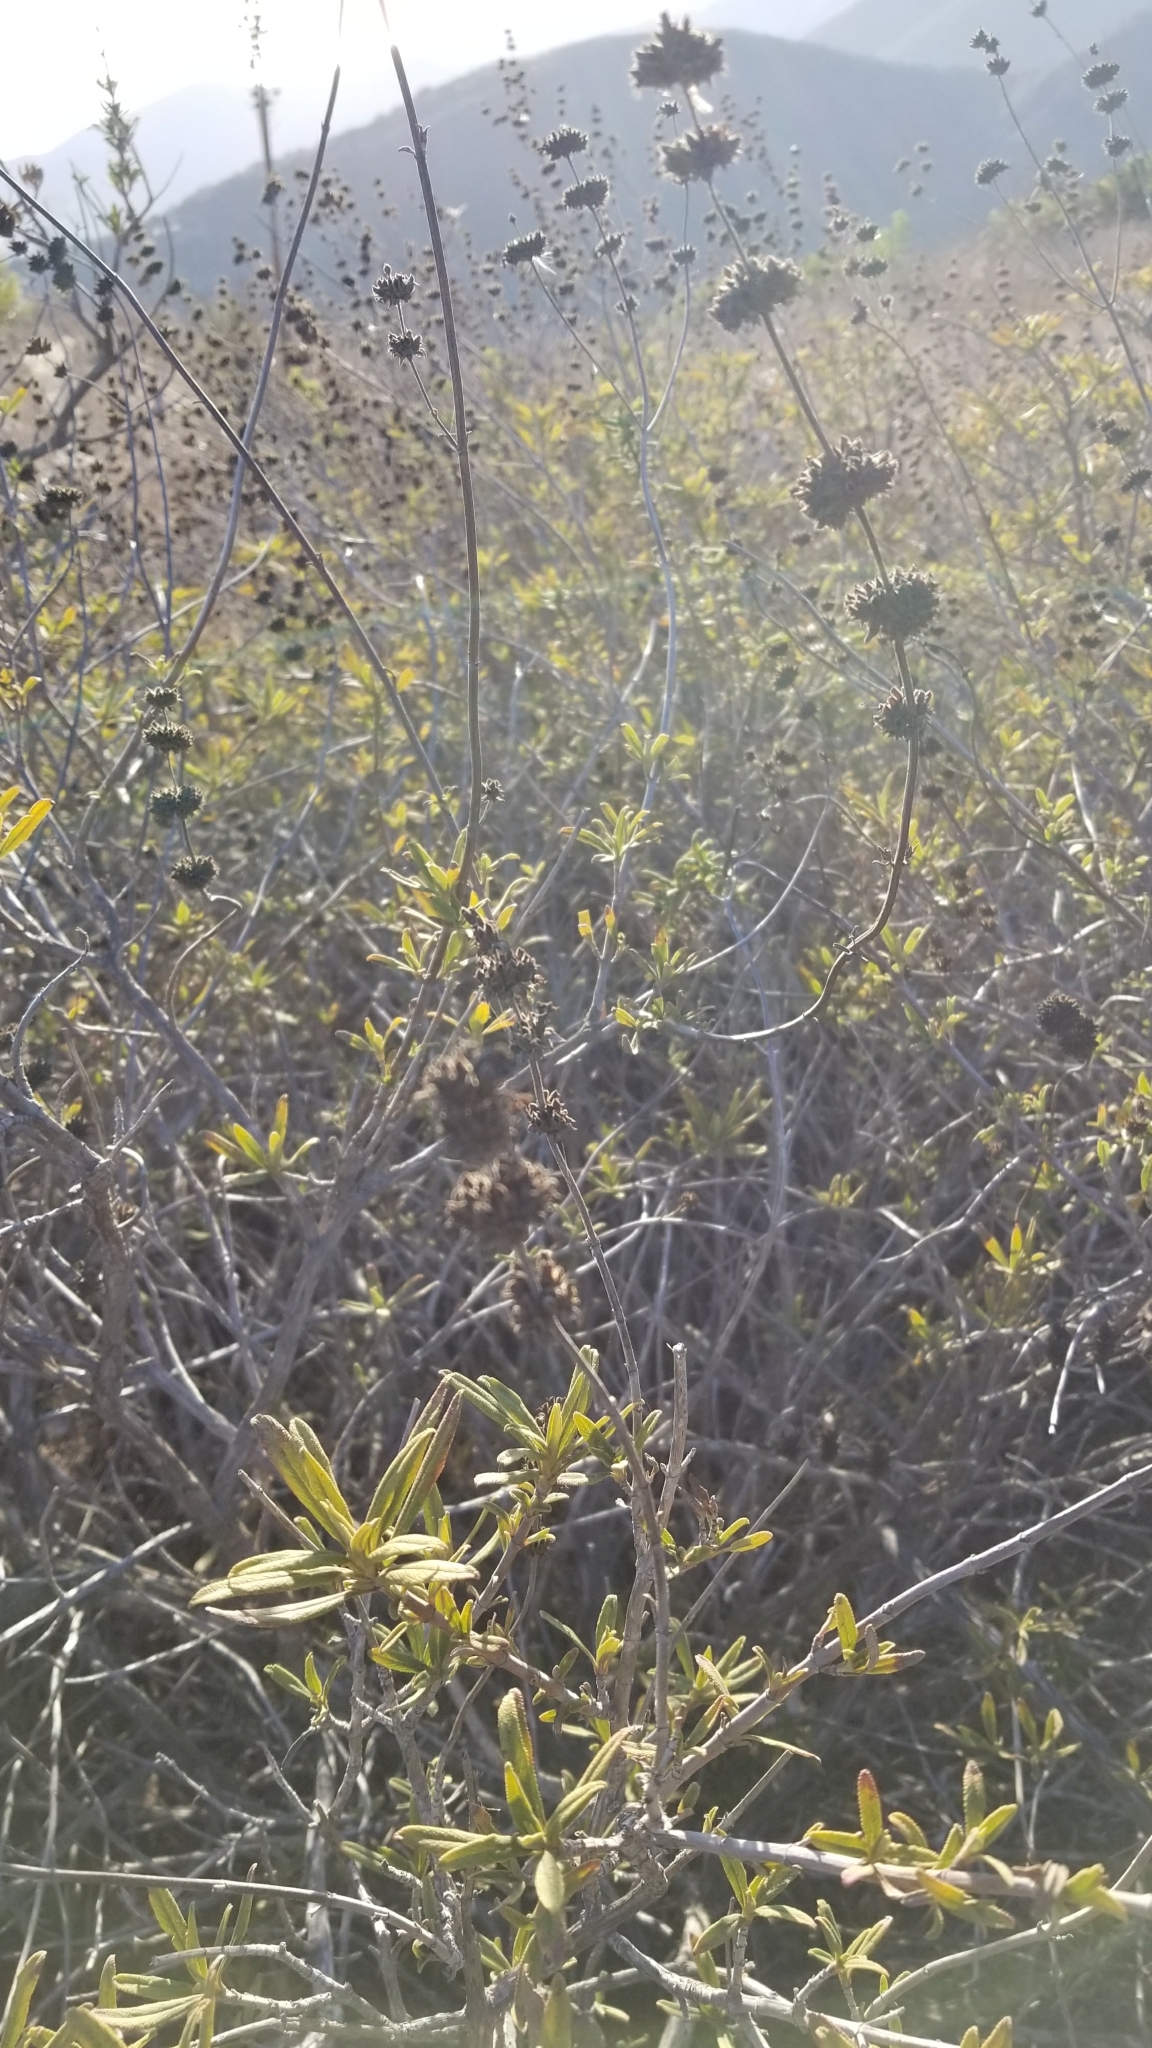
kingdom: Plantae
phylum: Tracheophyta
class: Magnoliopsida
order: Lamiales
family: Lamiaceae
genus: Salvia
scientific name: Salvia mellifera
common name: Black sage
